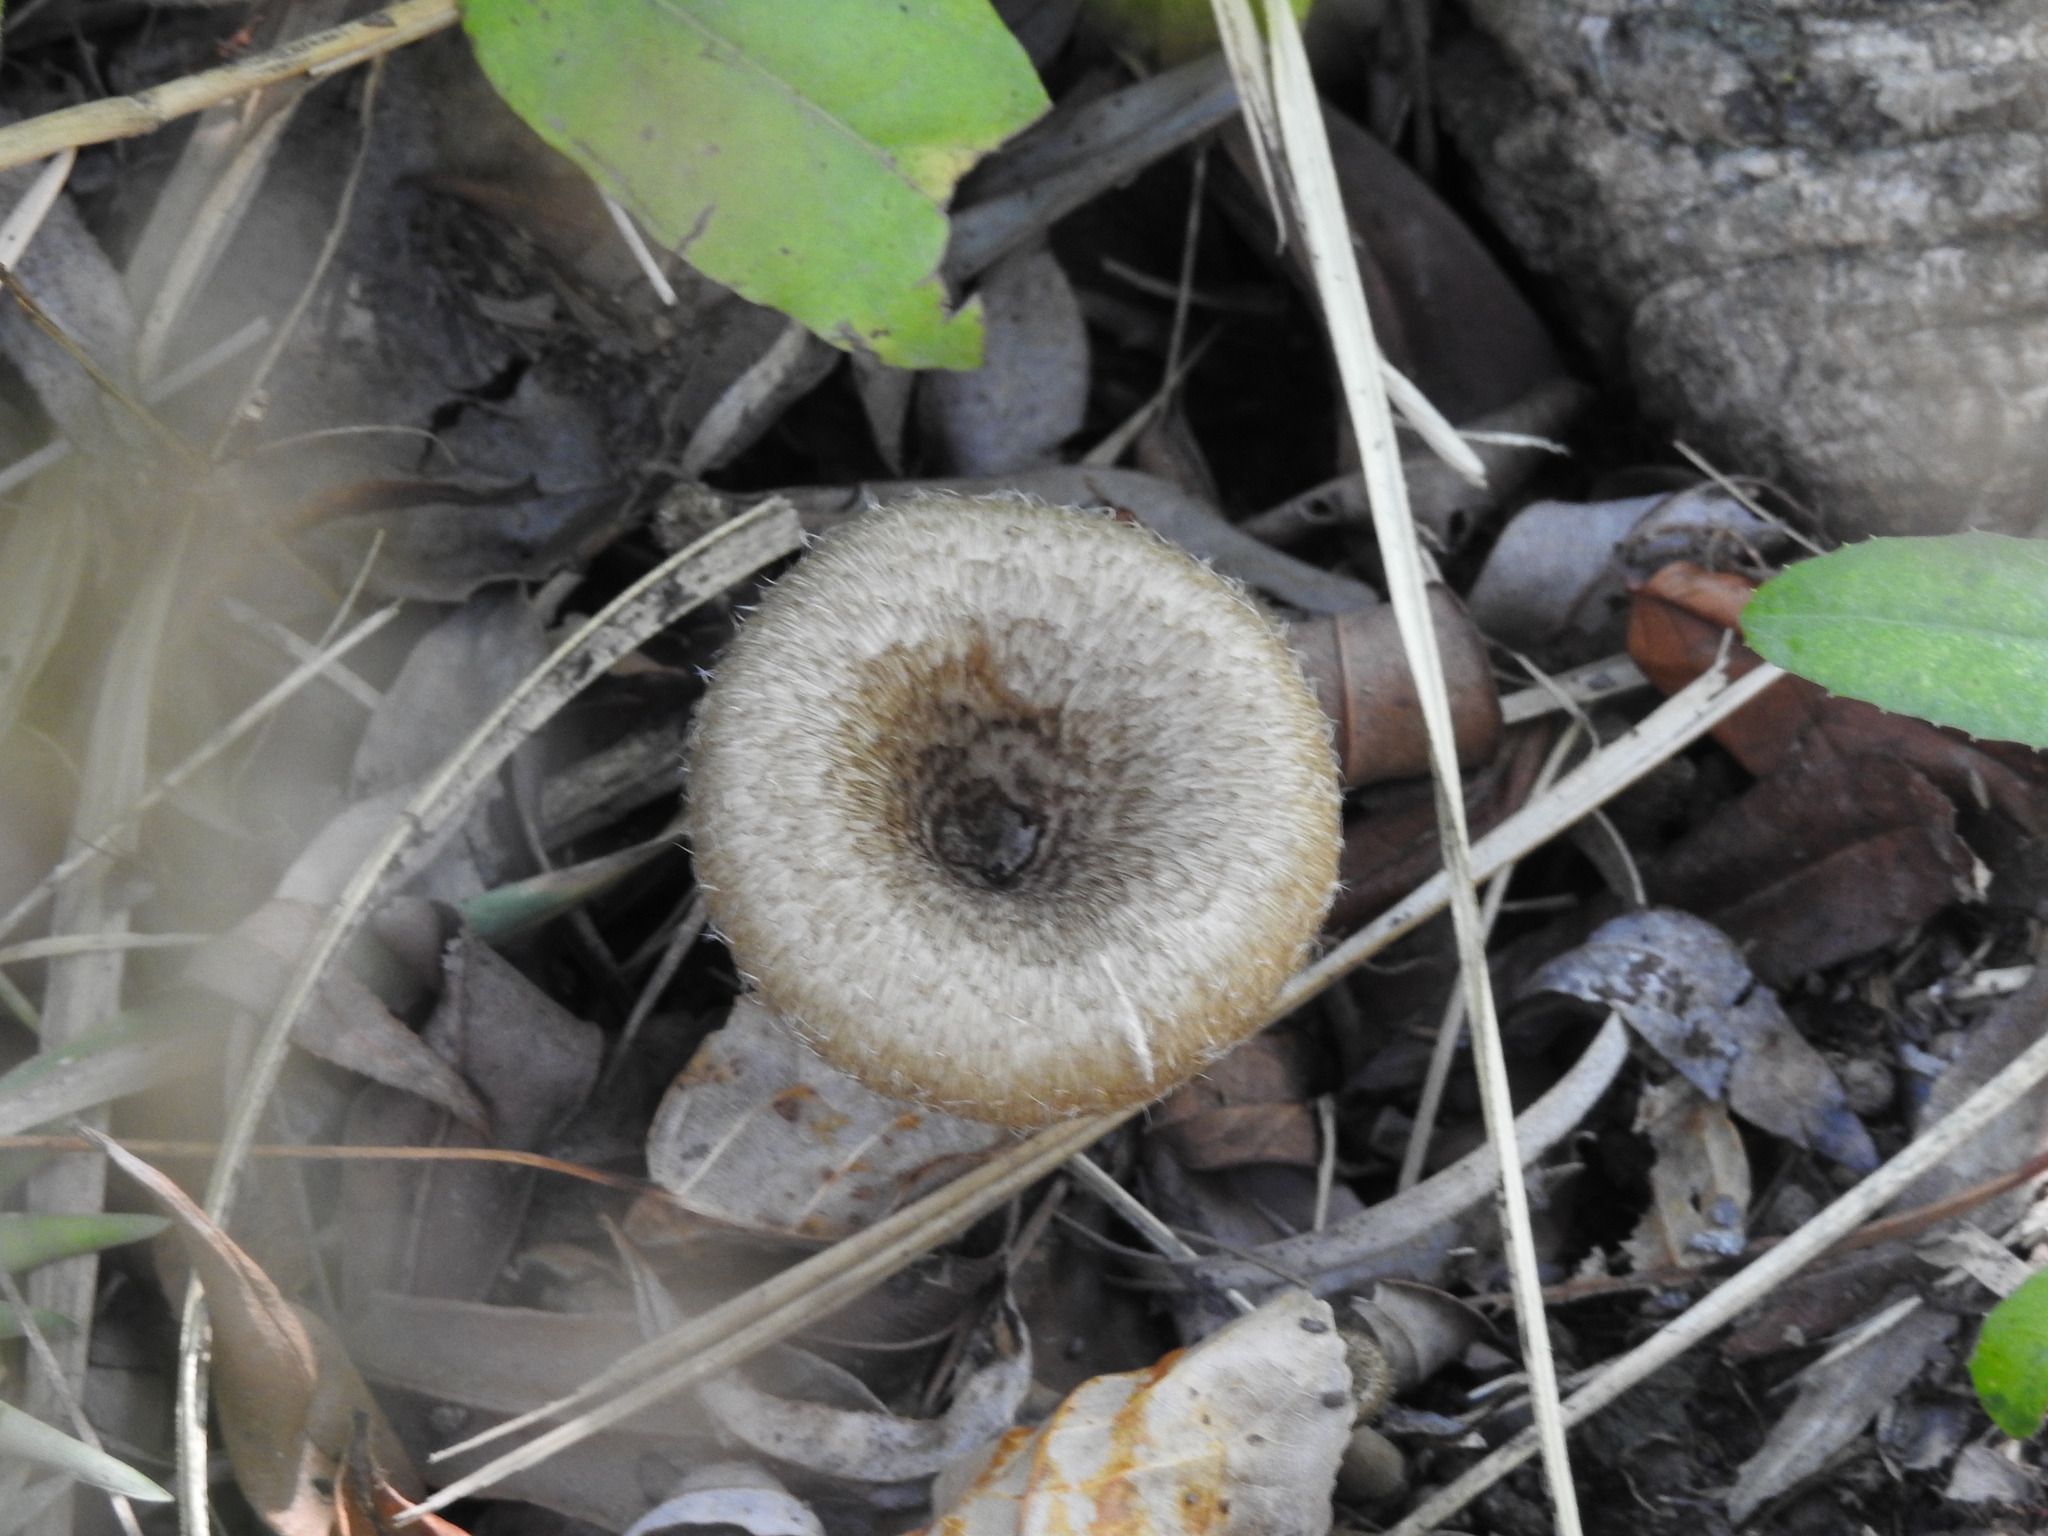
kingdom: Fungi
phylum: Basidiomycota
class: Agaricomycetes
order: Polyporales
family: Polyporaceae
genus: Lentinus
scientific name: Lentinus crinitus
